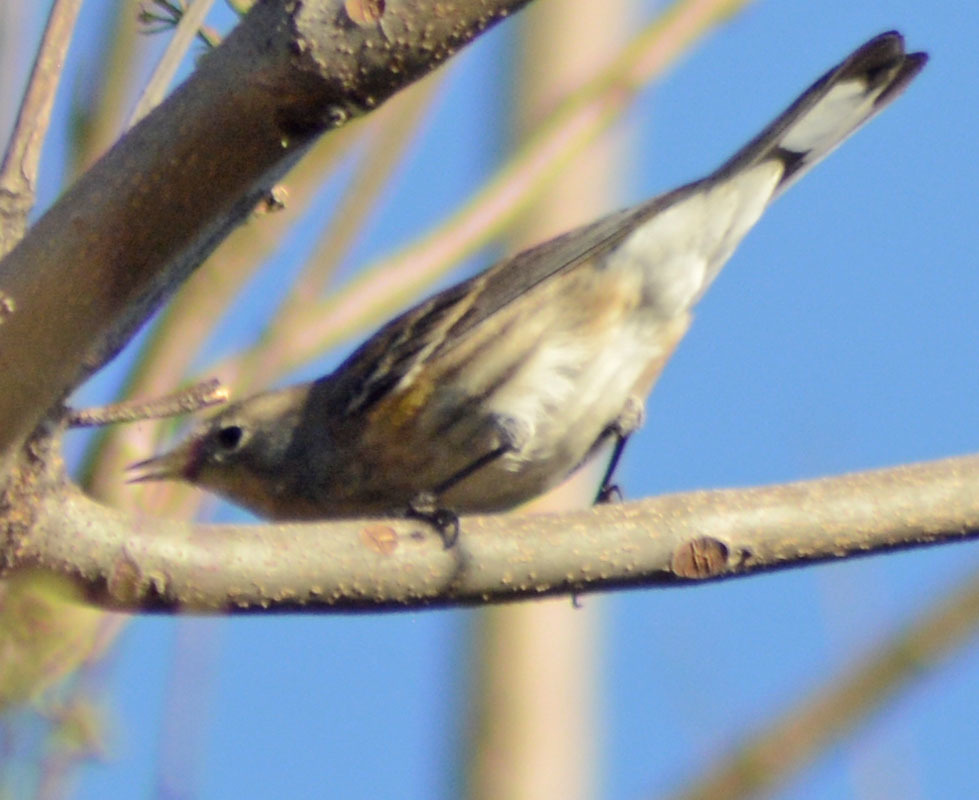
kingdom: Animalia
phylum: Chordata
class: Aves
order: Passeriformes
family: Parulidae
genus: Setophaga
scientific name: Setophaga coronata
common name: Myrtle warbler
